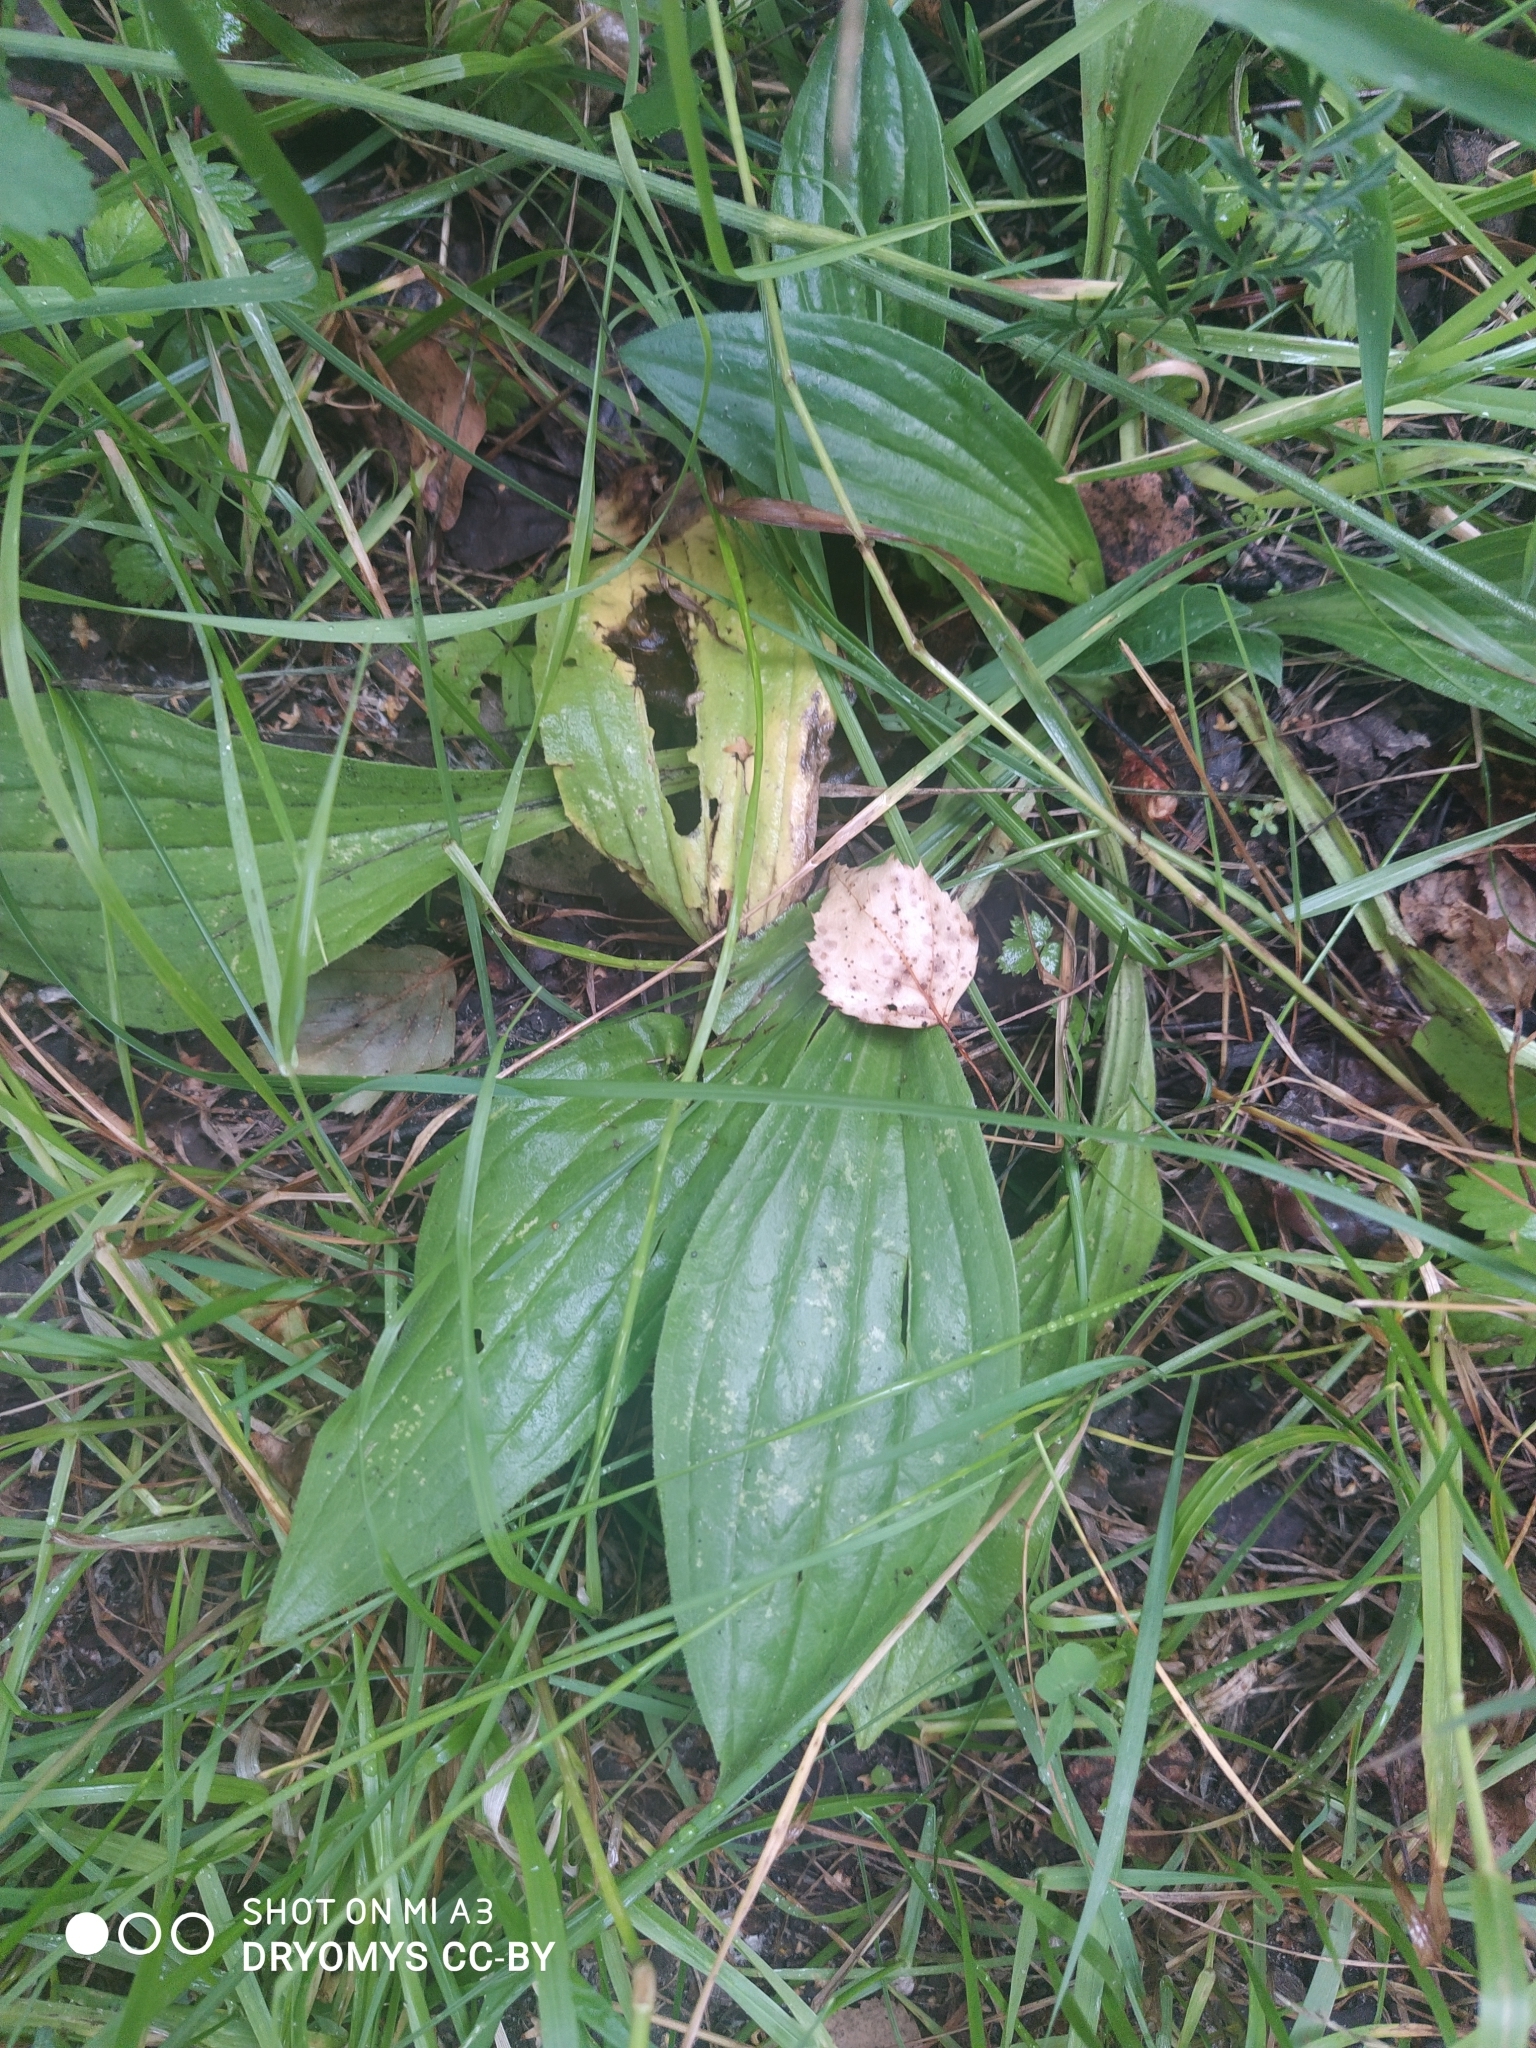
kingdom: Plantae
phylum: Tracheophyta
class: Magnoliopsida
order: Lamiales
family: Plantaginaceae
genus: Plantago
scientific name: Plantago media
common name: Hoary plantain
